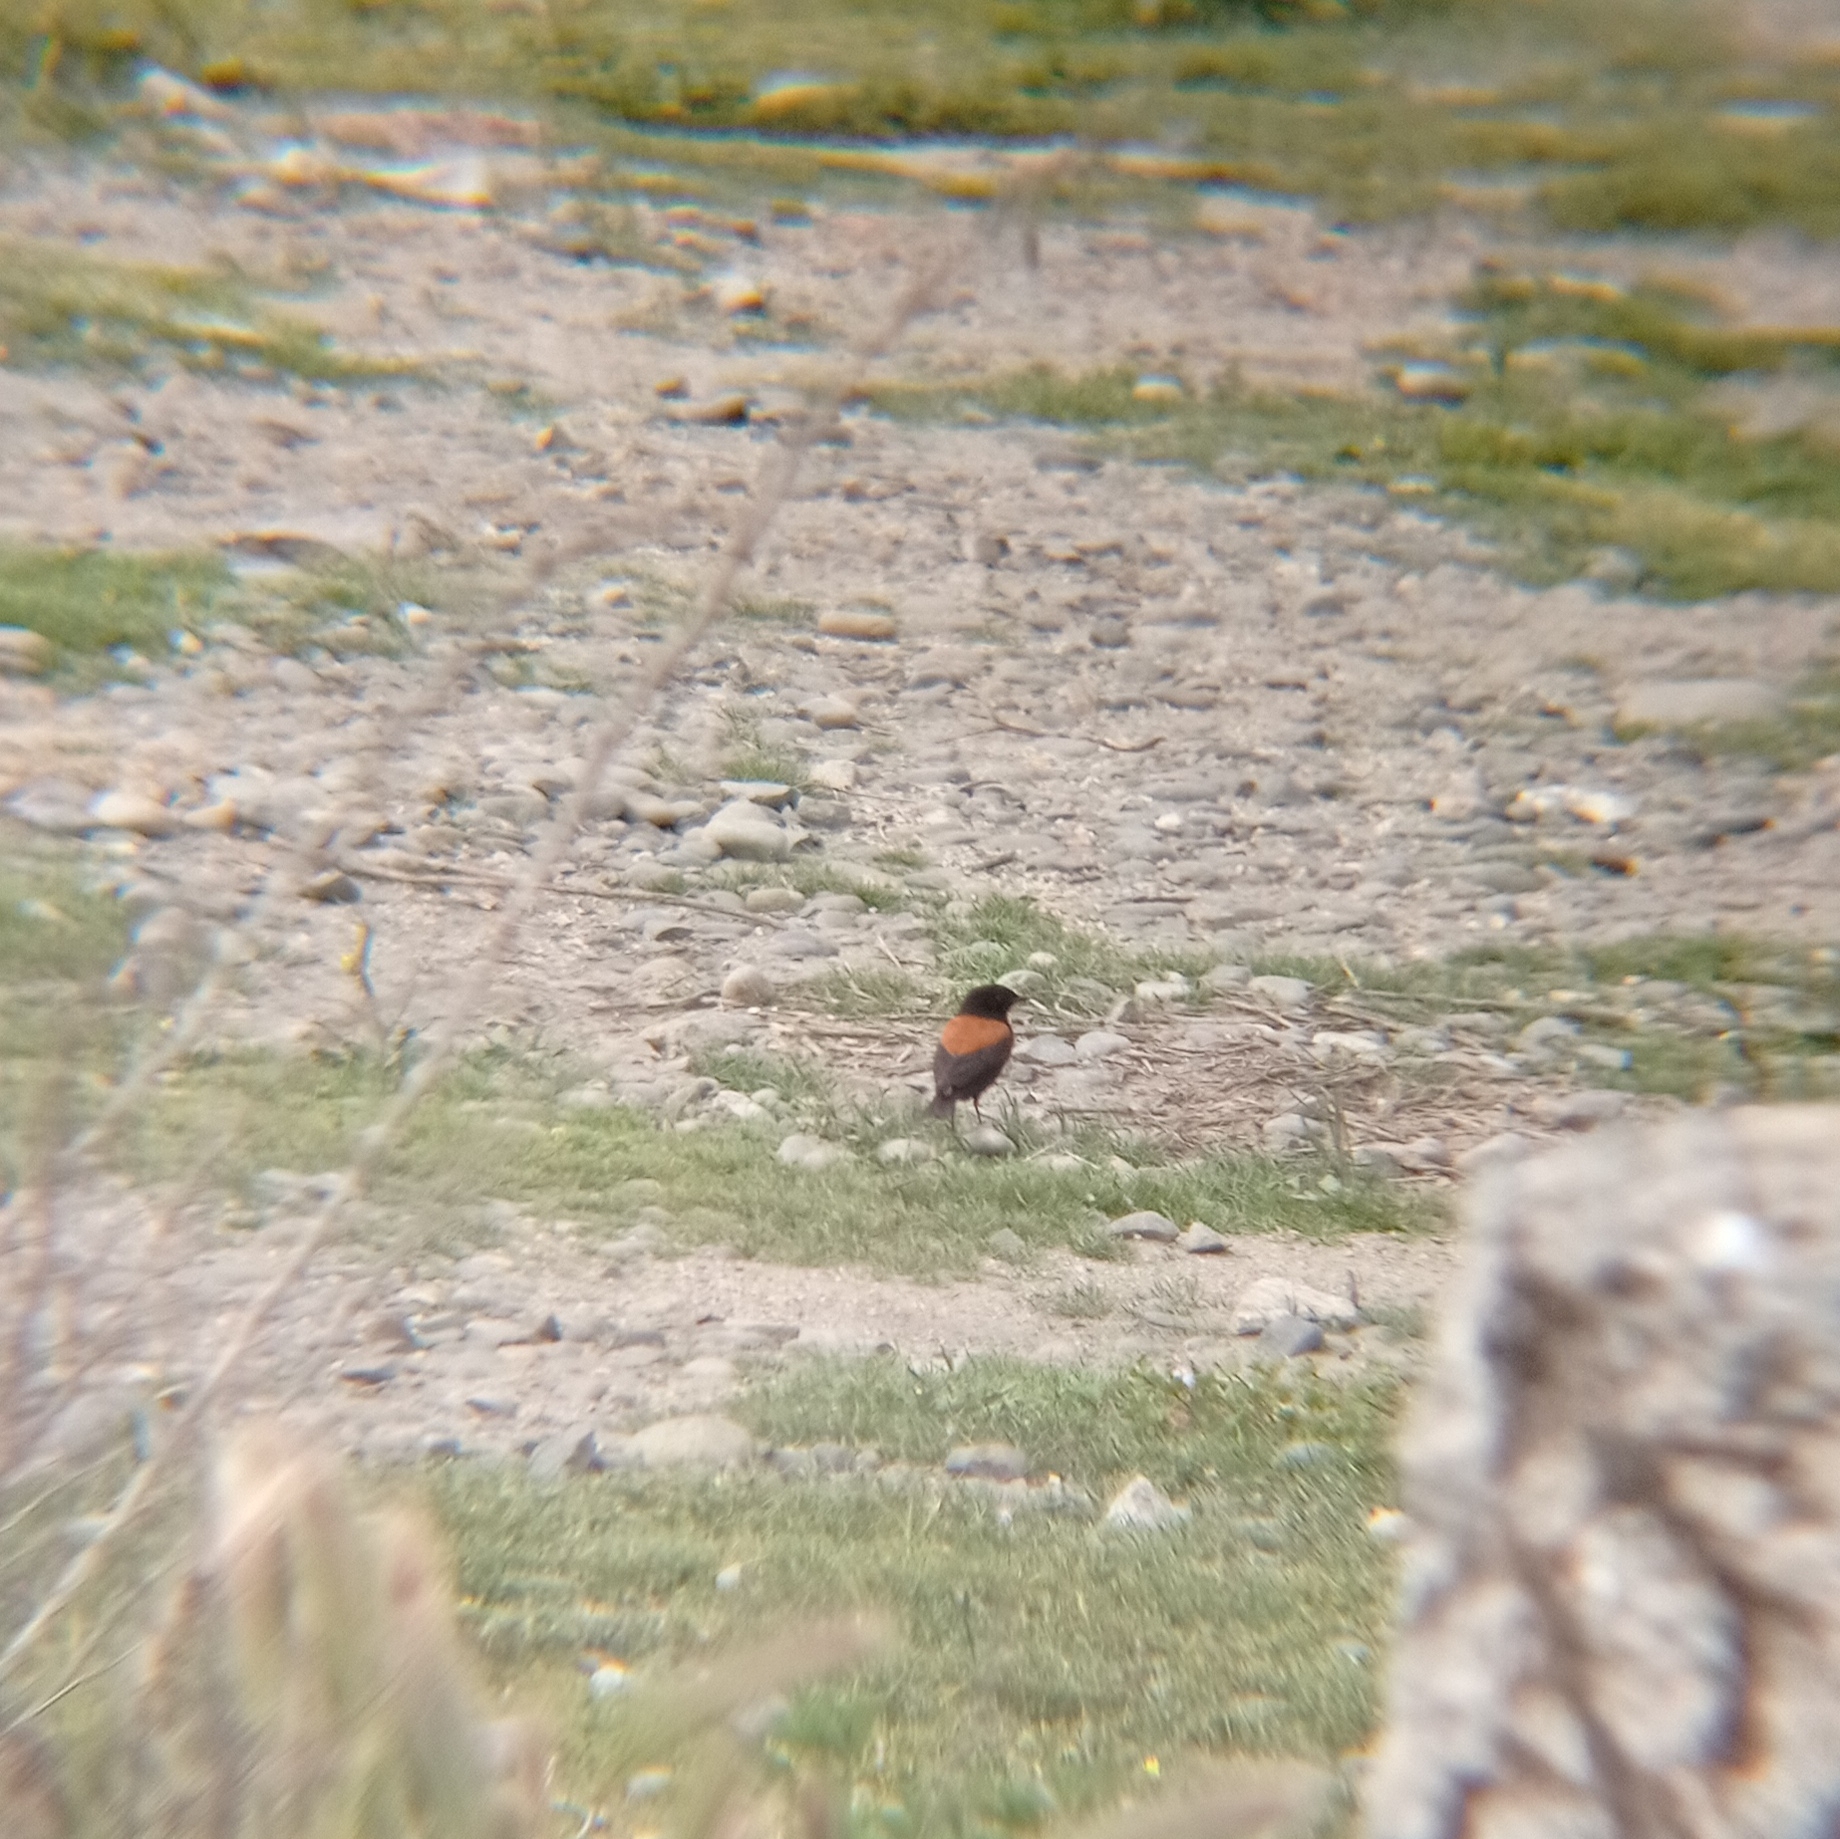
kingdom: Animalia
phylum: Chordata
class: Aves
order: Passeriformes
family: Tyrannidae
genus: Lessonia
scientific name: Lessonia rufa
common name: Austral negrito
